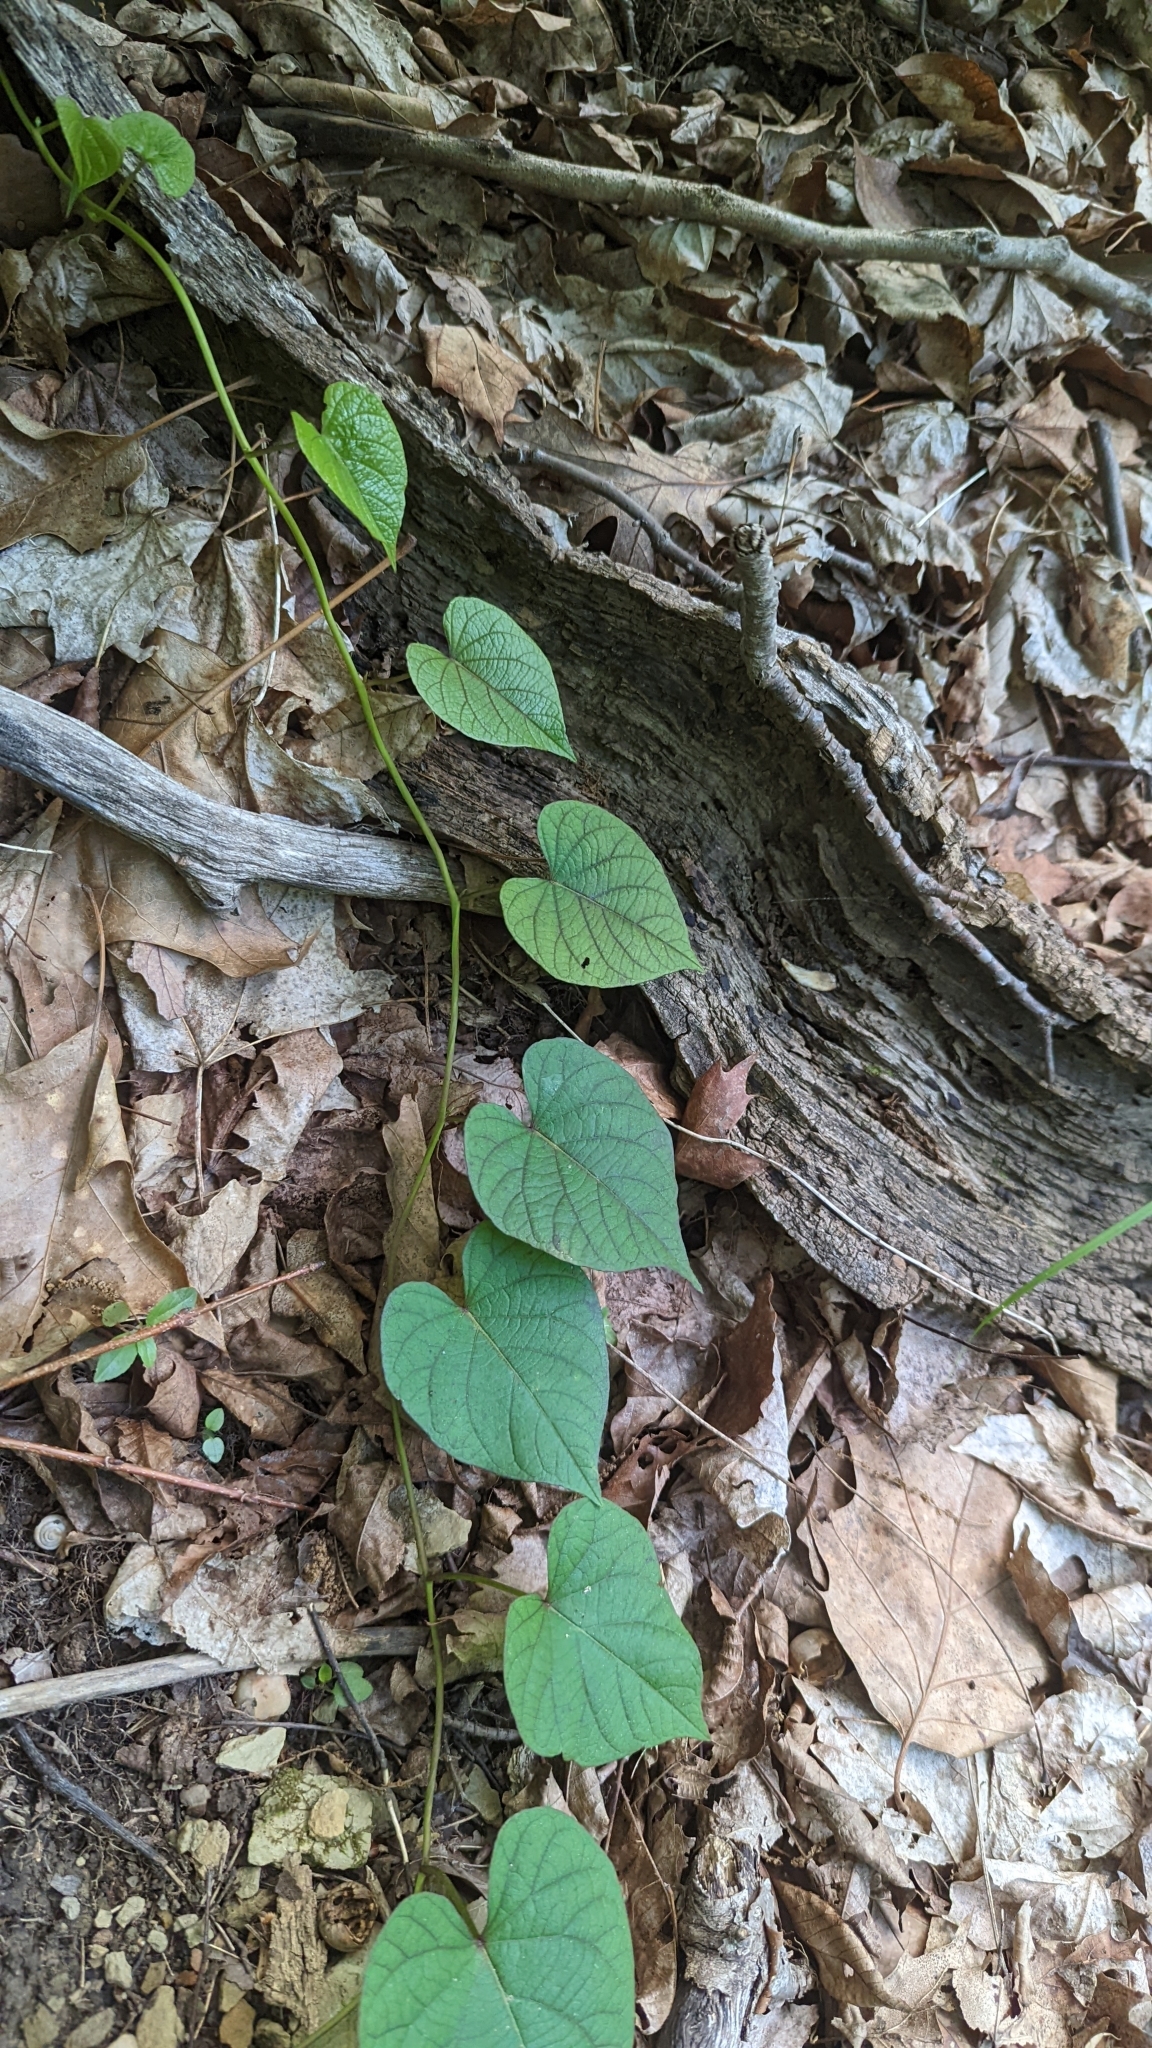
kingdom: Plantae
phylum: Tracheophyta
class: Magnoliopsida
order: Piperales
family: Aristolochiaceae
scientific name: Aristolochiaceae
